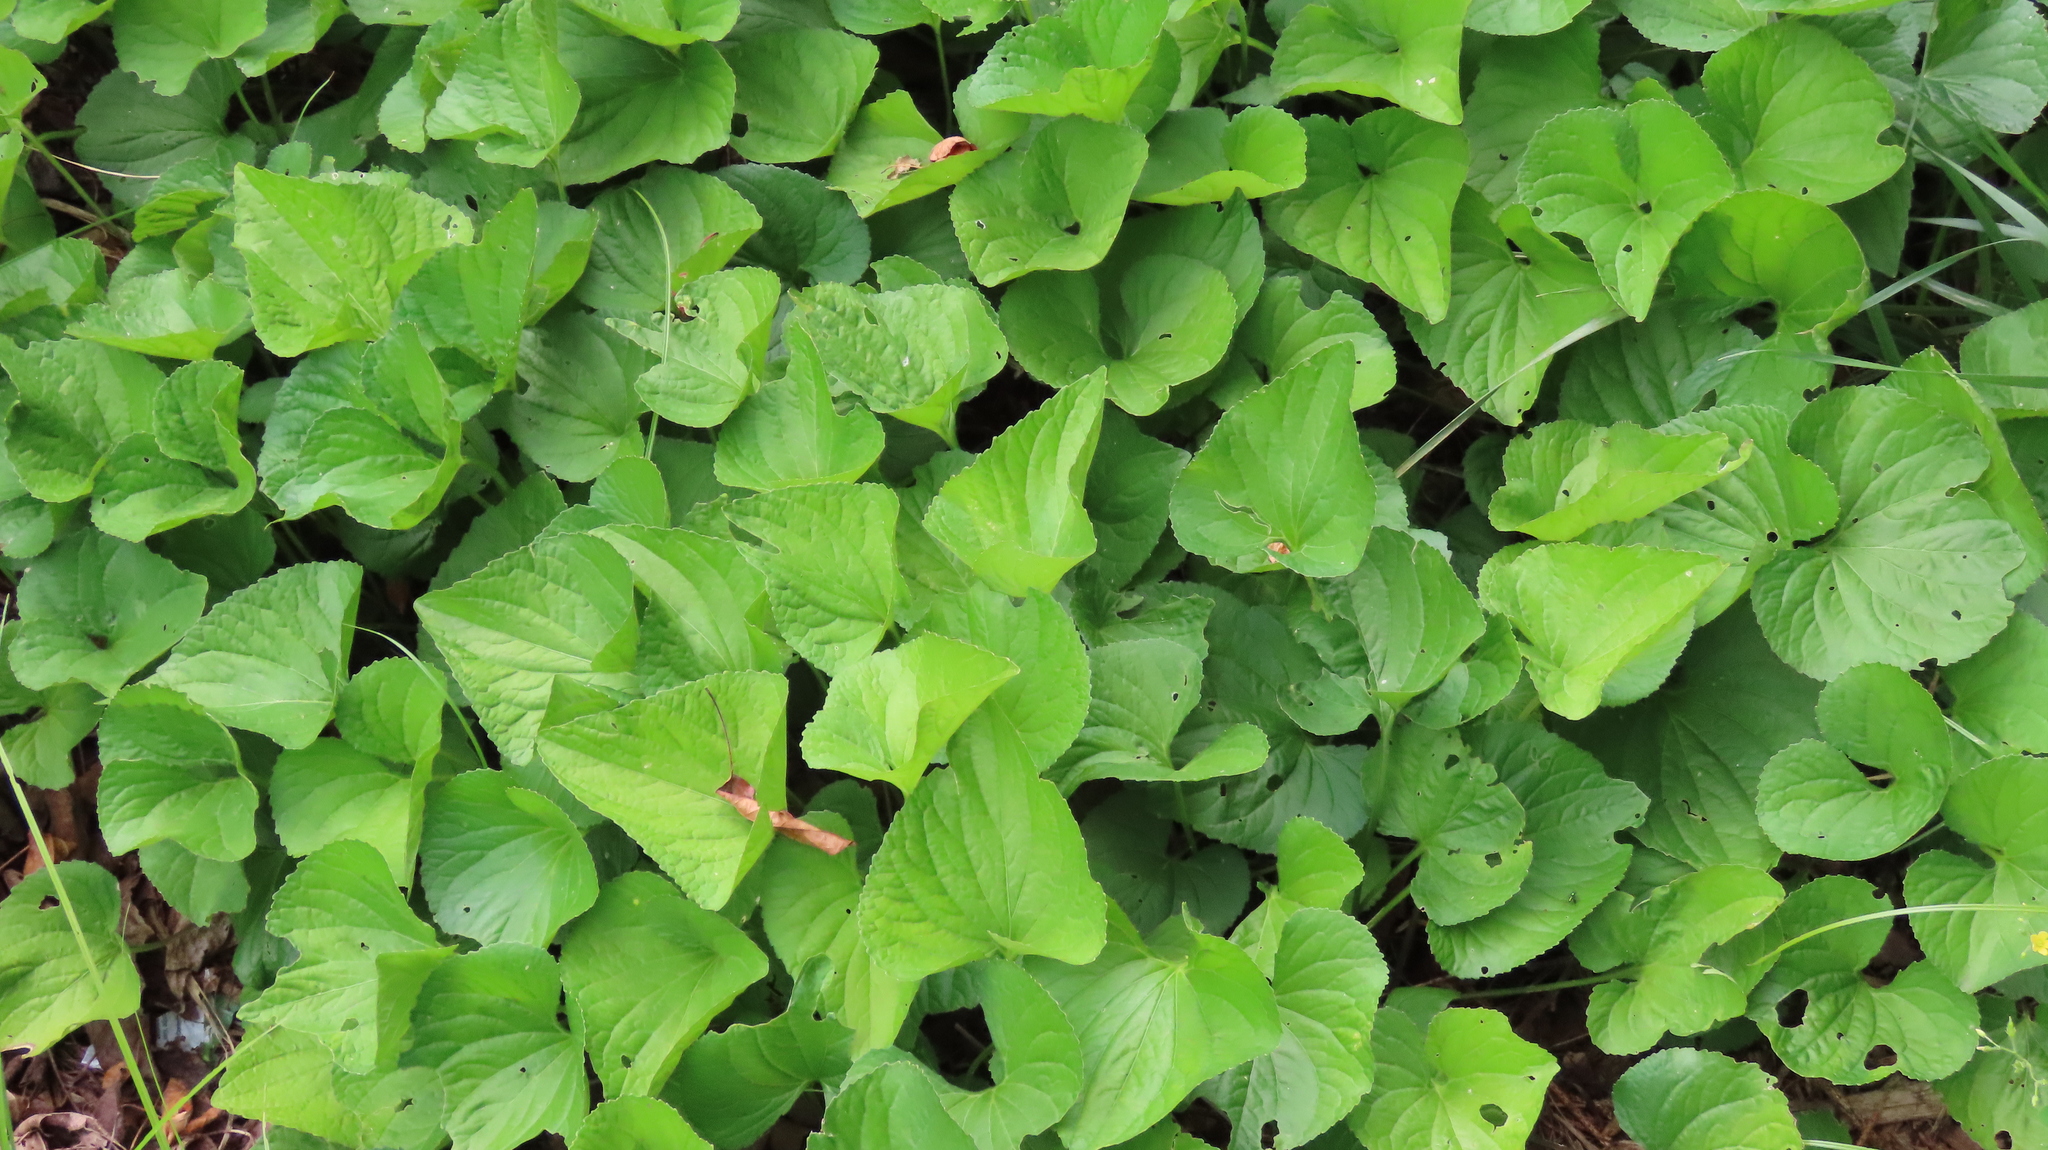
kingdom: Plantae
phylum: Tracheophyta
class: Magnoliopsida
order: Malpighiales
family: Violaceae
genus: Viola
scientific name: Viola sororia
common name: Dooryard violet
